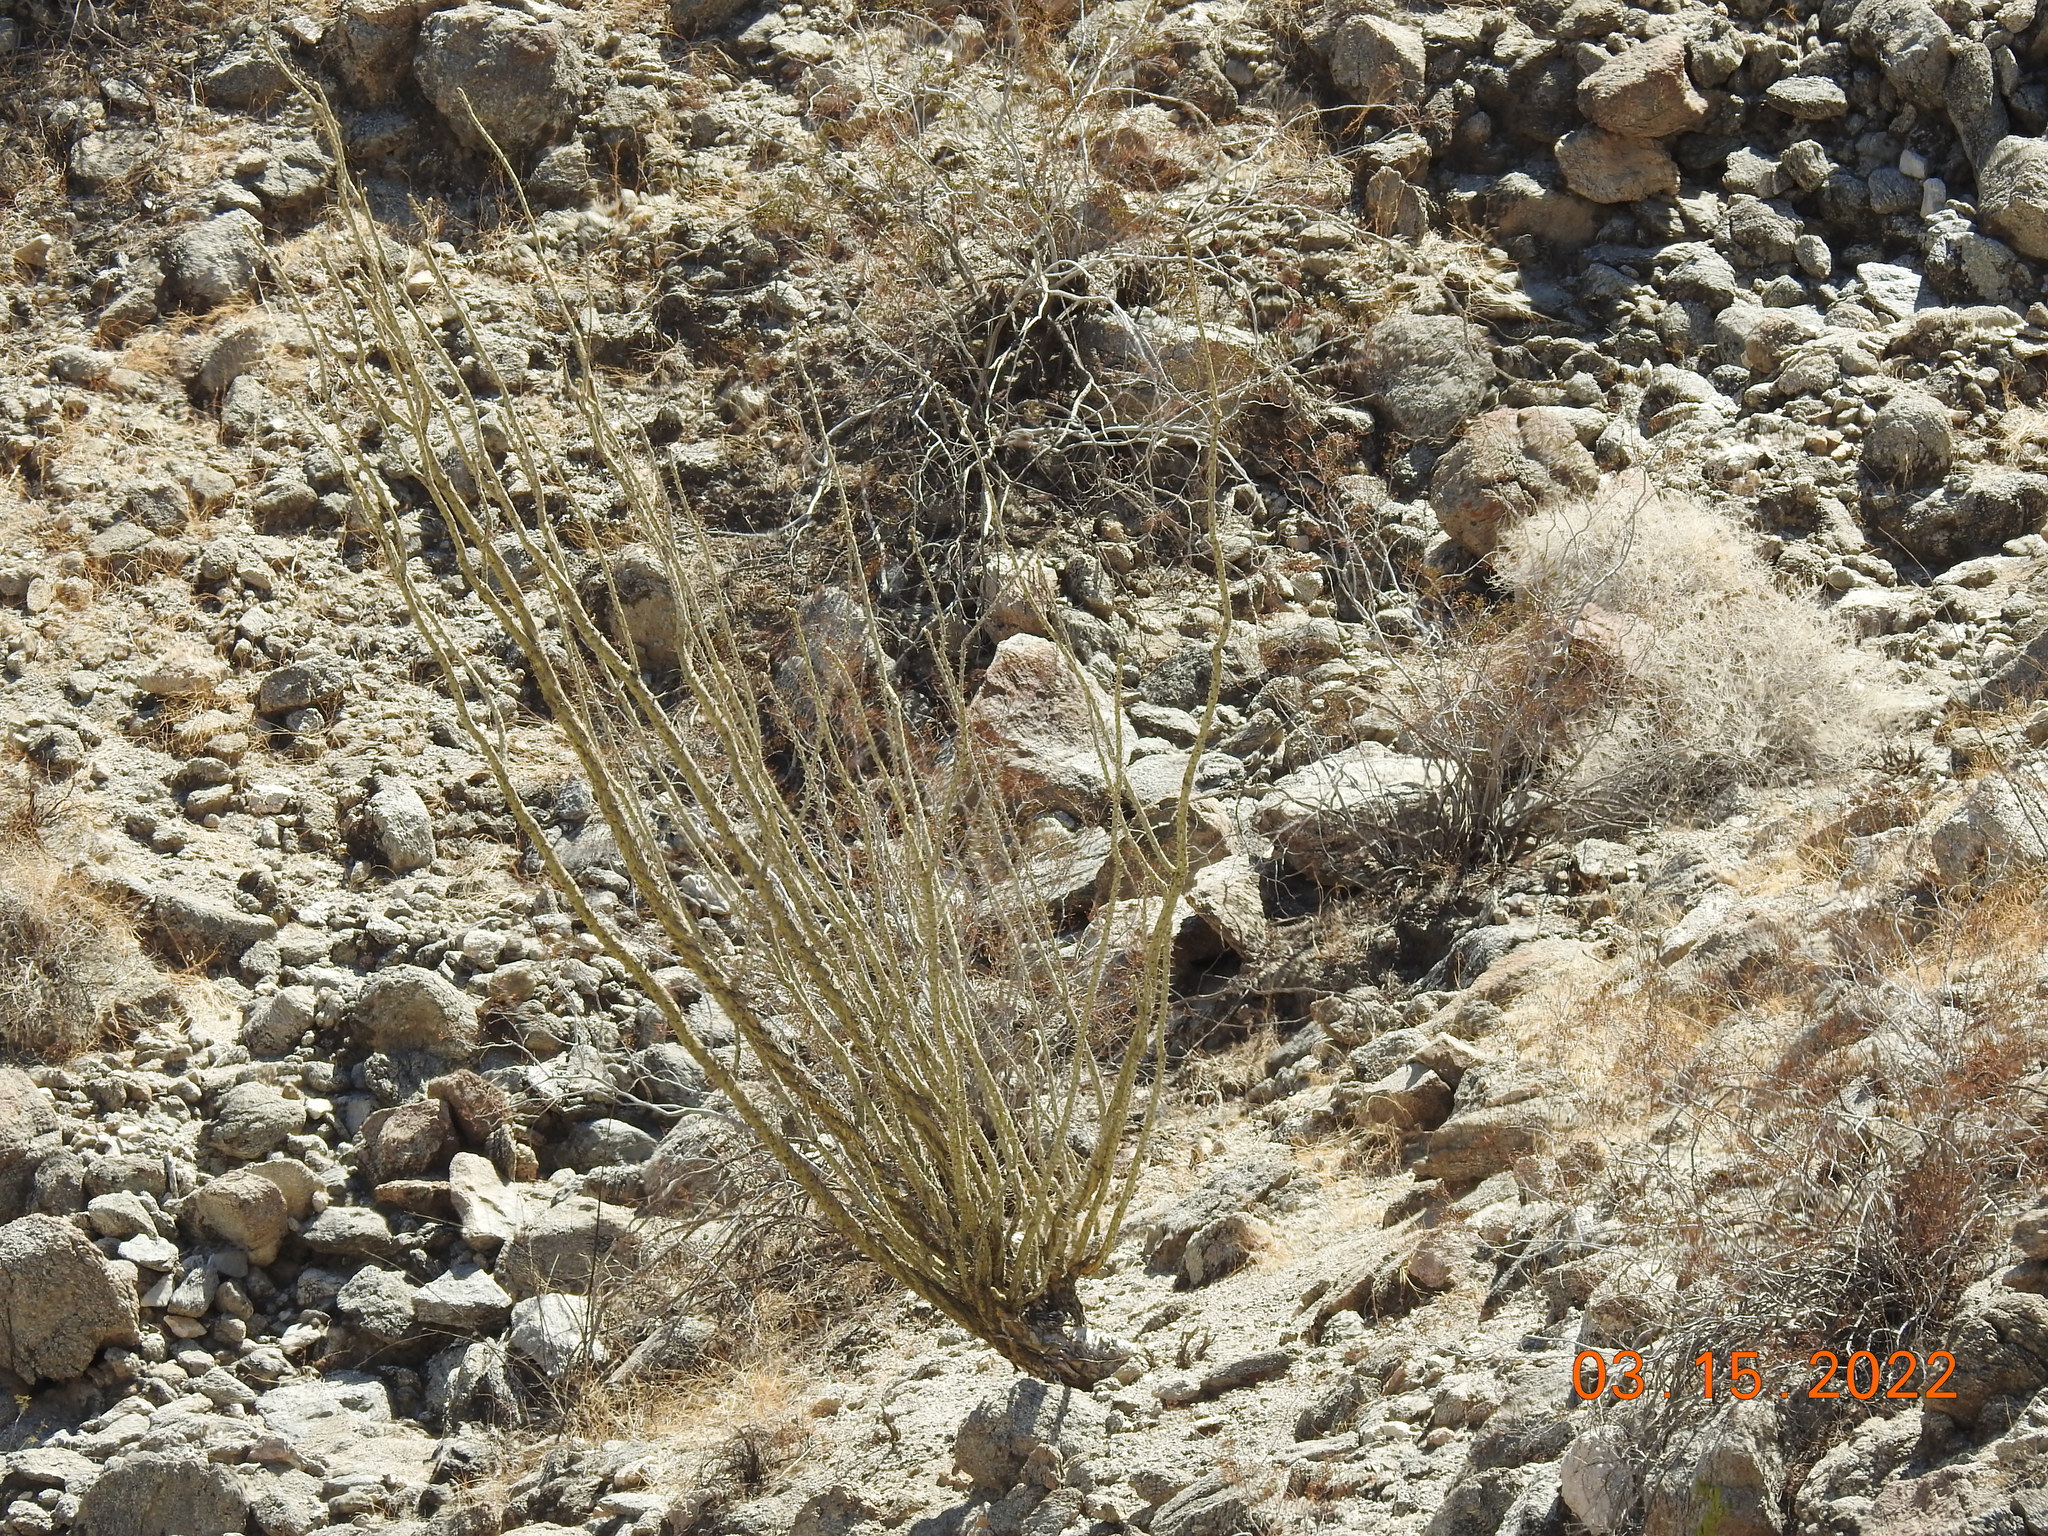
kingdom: Plantae
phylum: Tracheophyta
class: Magnoliopsida
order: Ericales
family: Fouquieriaceae
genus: Fouquieria
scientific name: Fouquieria splendens
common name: Vine-cactus
